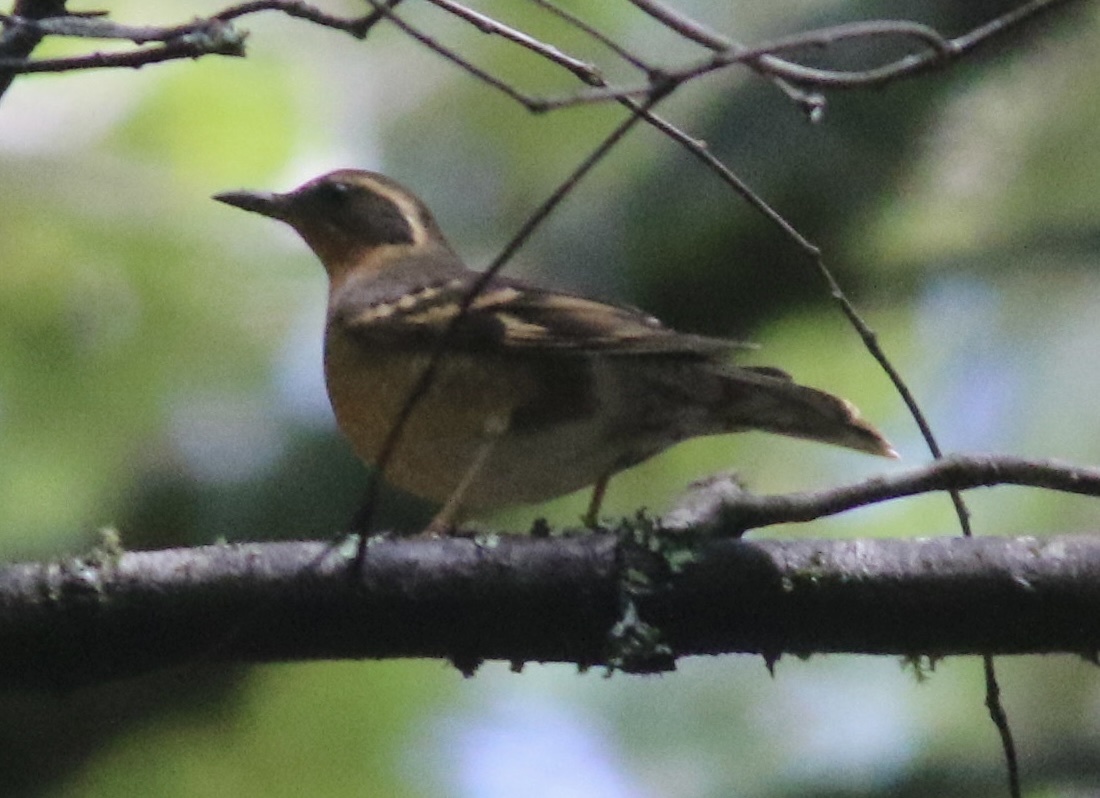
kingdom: Animalia
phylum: Chordata
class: Aves
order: Passeriformes
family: Turdidae
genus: Ixoreus
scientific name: Ixoreus naevius
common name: Varied thrush
